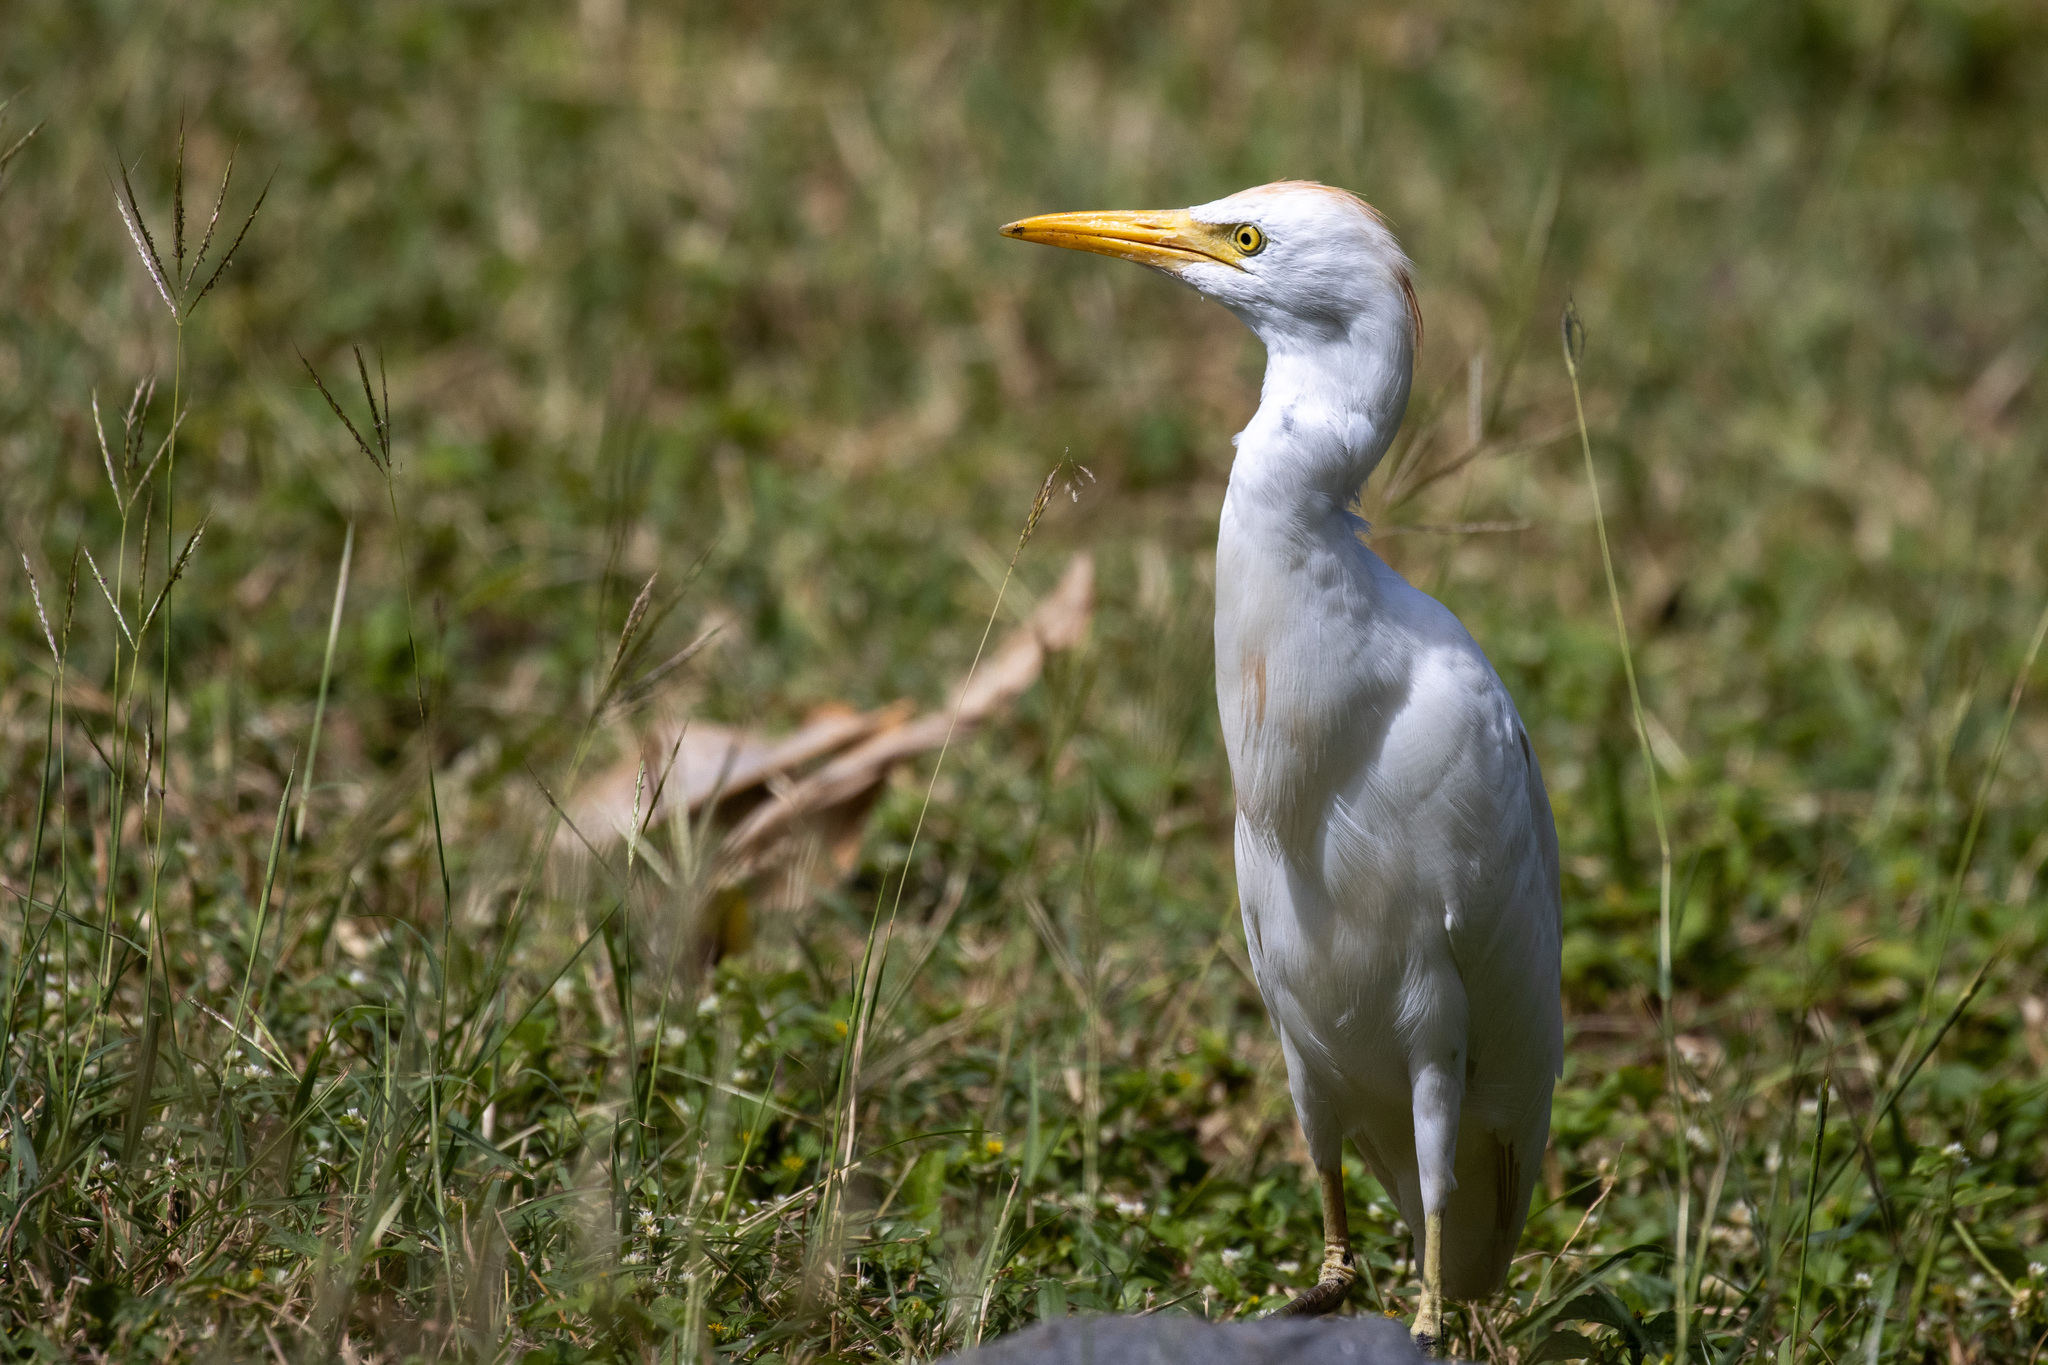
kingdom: Animalia
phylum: Chordata
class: Aves
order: Pelecaniformes
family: Ardeidae
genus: Bubulcus
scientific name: Bubulcus ibis
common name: Cattle egret
